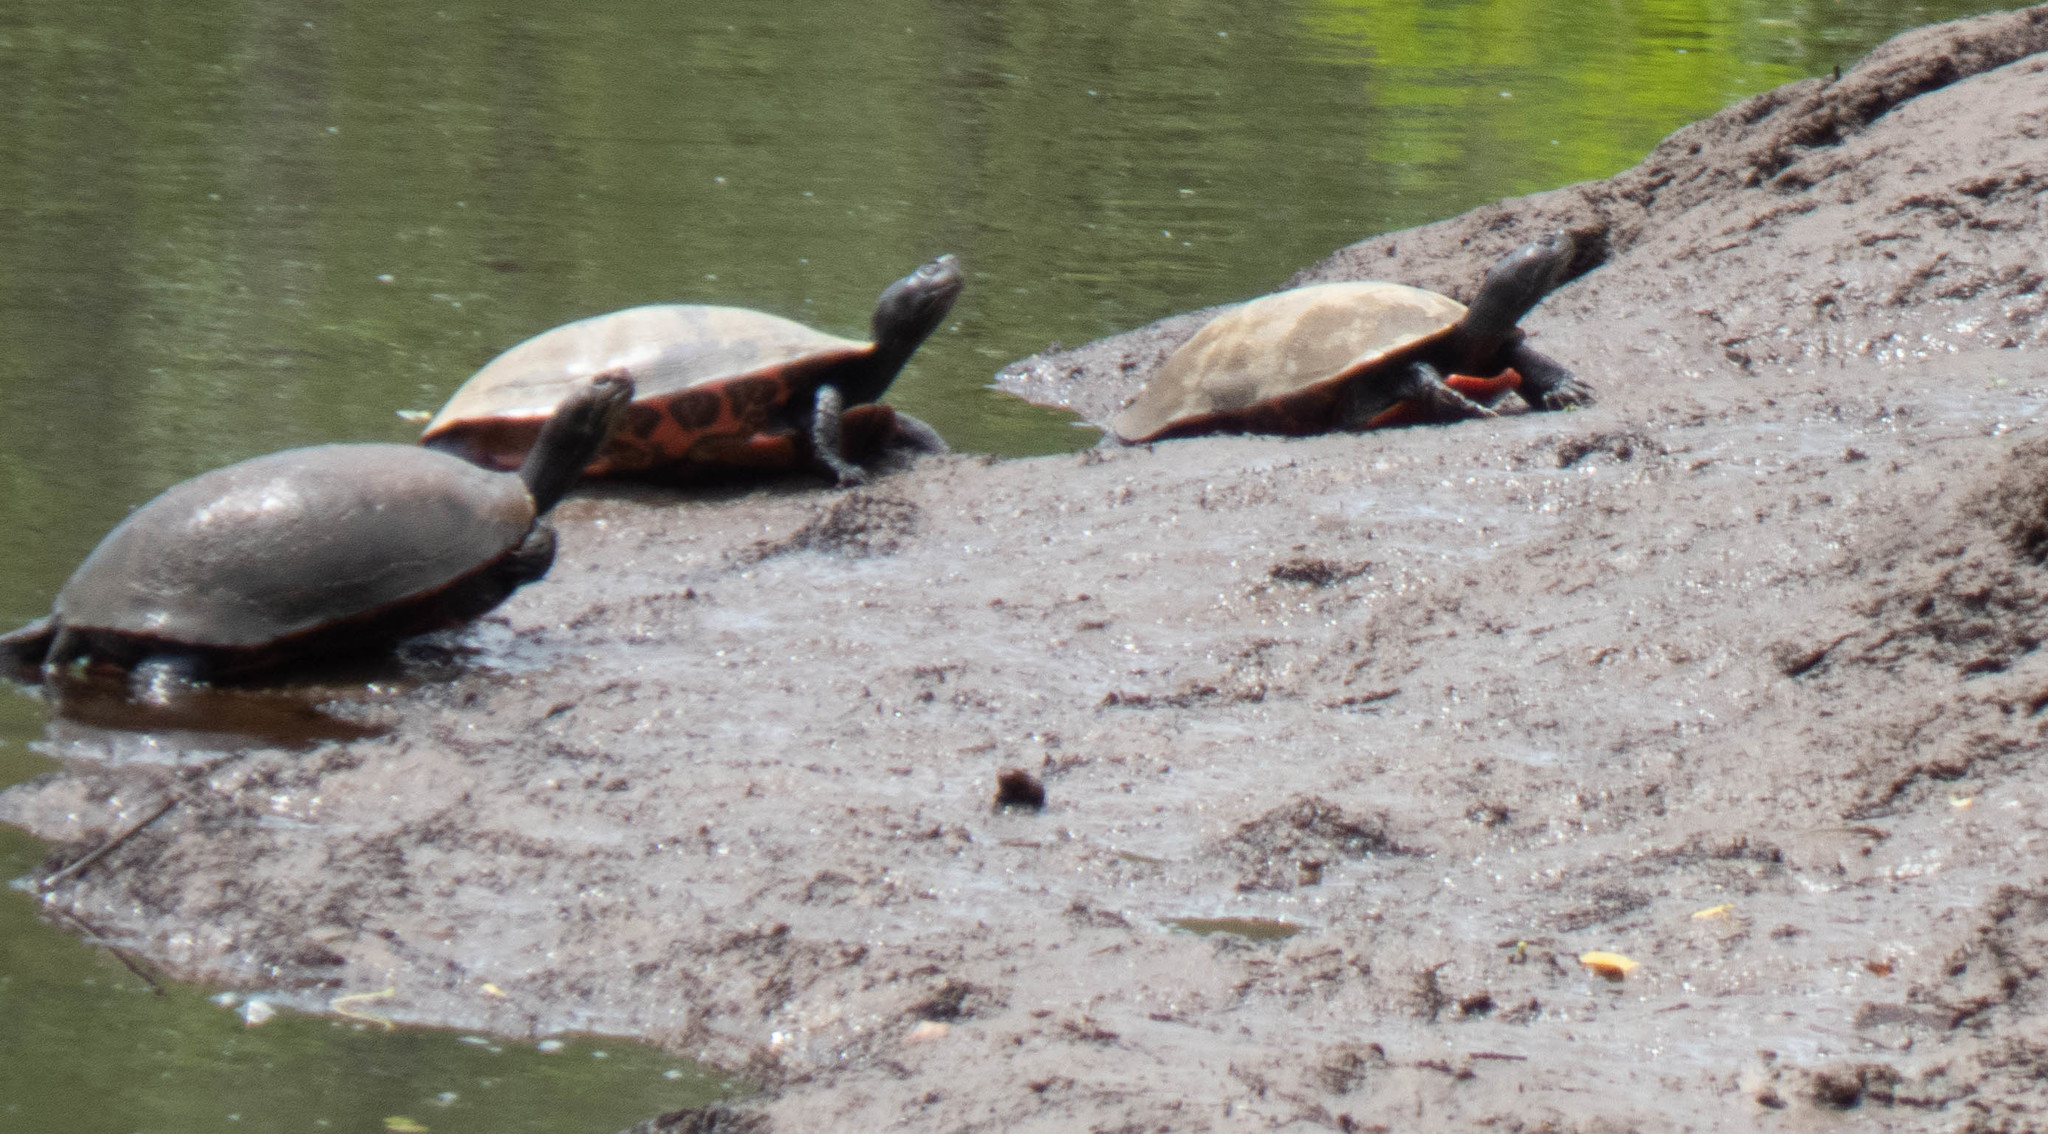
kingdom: Animalia
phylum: Chordata
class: Testudines
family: Emydidae
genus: Pseudemys
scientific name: Pseudemys rubriventris
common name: American red-bellied turtle
